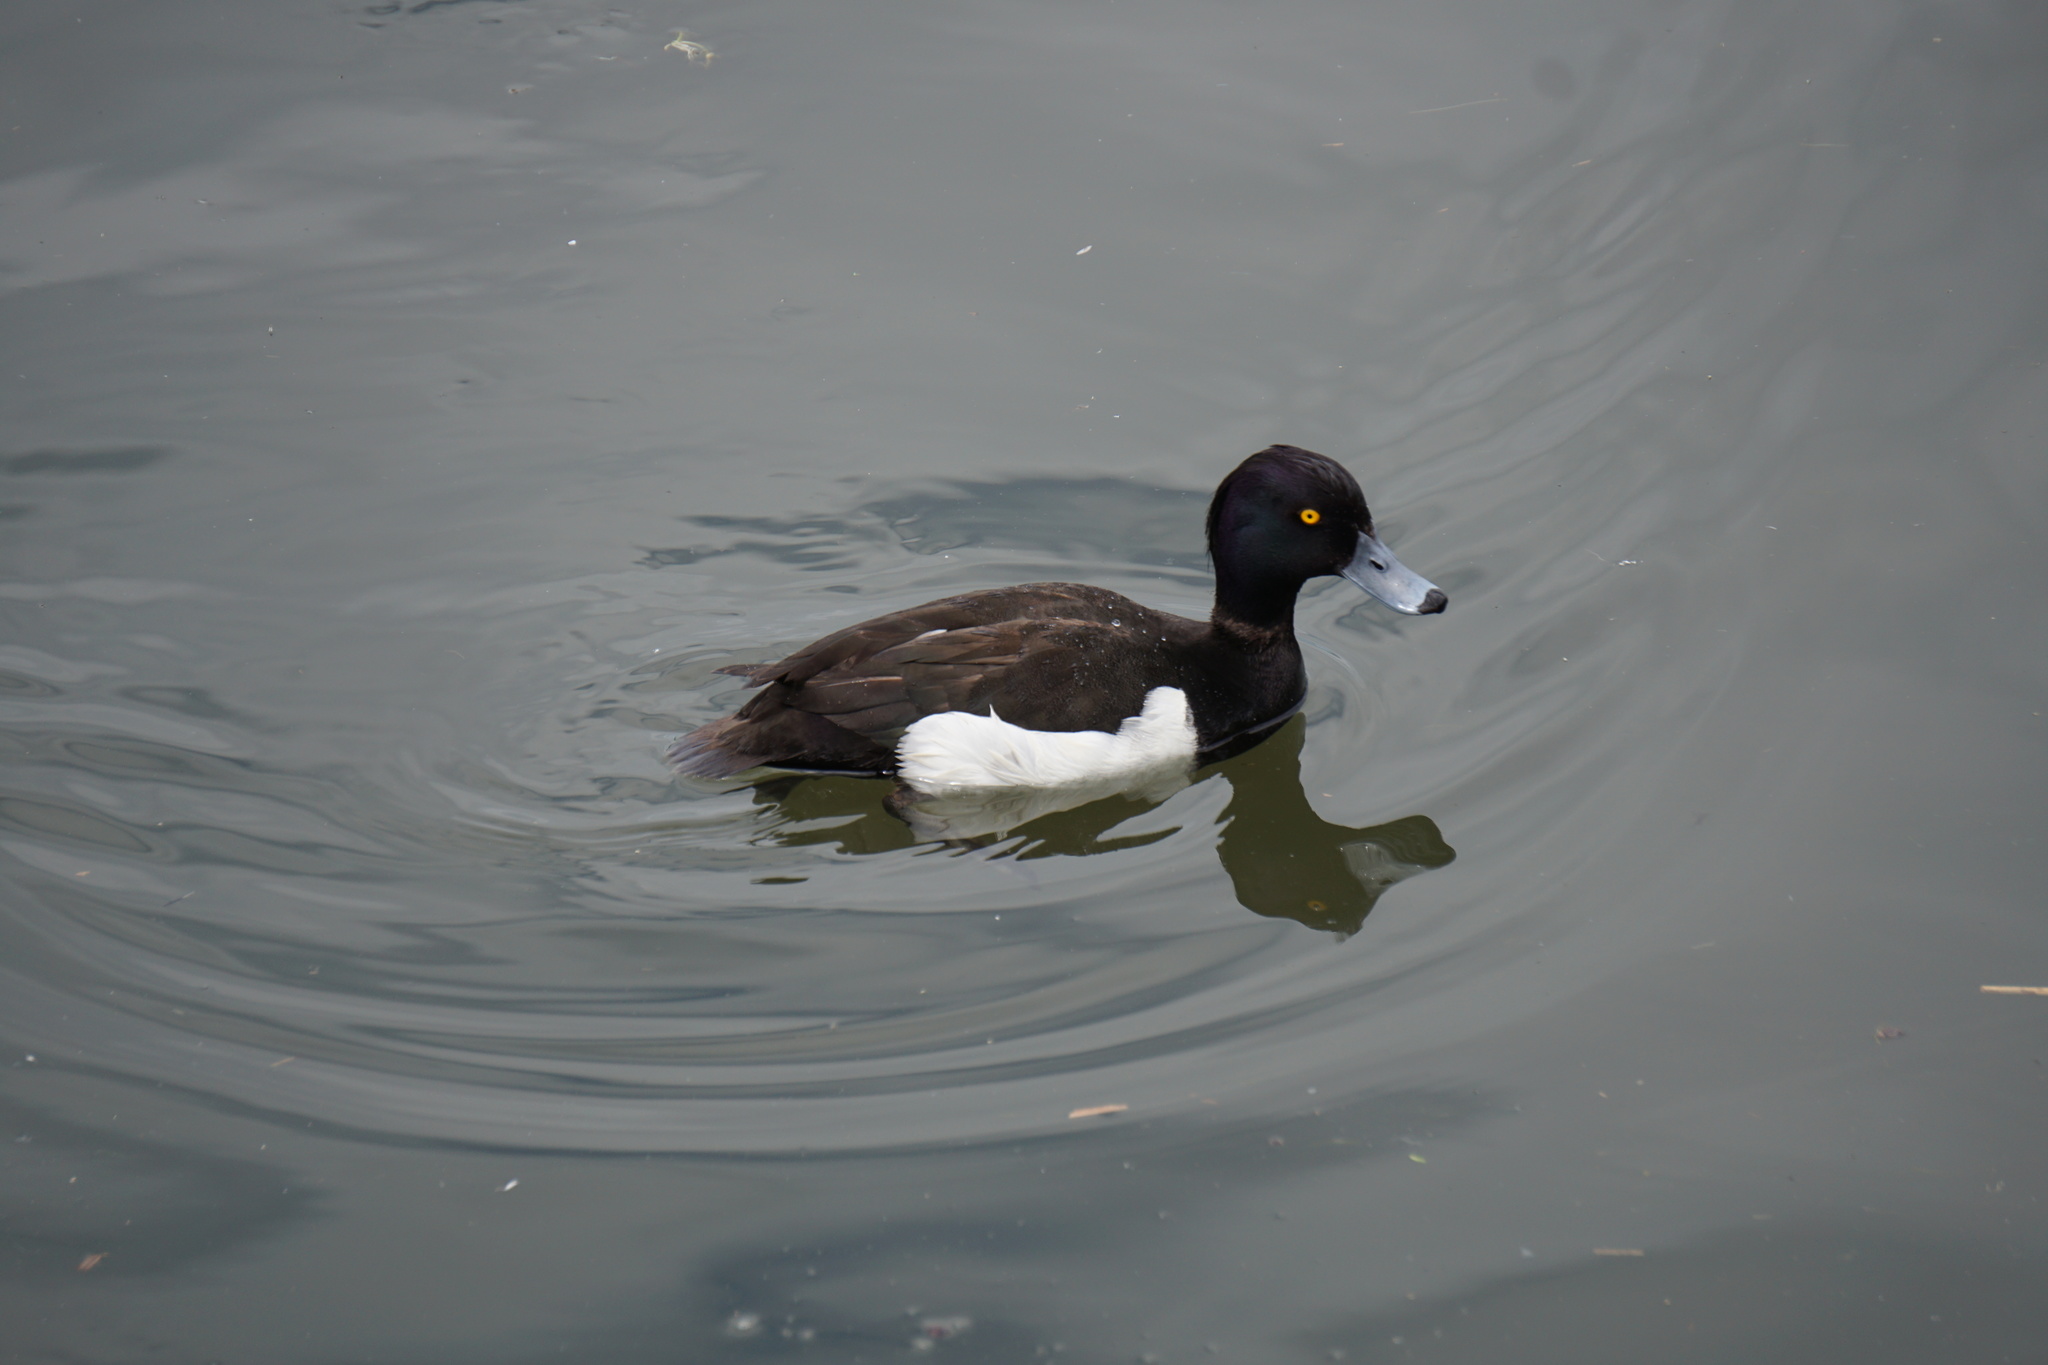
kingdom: Animalia
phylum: Chordata
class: Aves
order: Anseriformes
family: Anatidae
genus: Aythya
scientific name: Aythya fuligula
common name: Tufted duck
